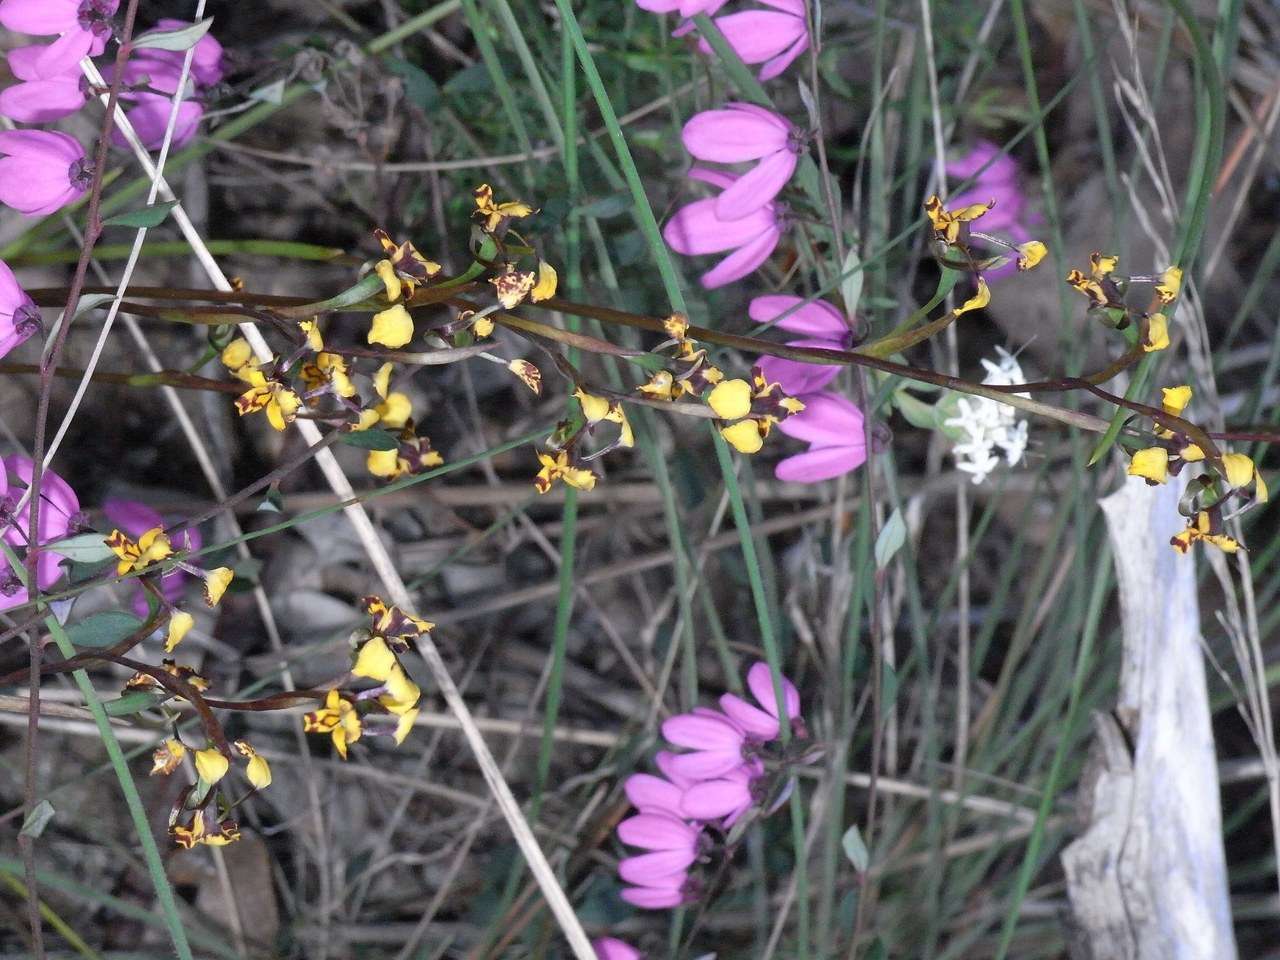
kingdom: Plantae
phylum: Tracheophyta
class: Liliopsida
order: Asparagales
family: Orchidaceae
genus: Diuris
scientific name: Diuris pardina
